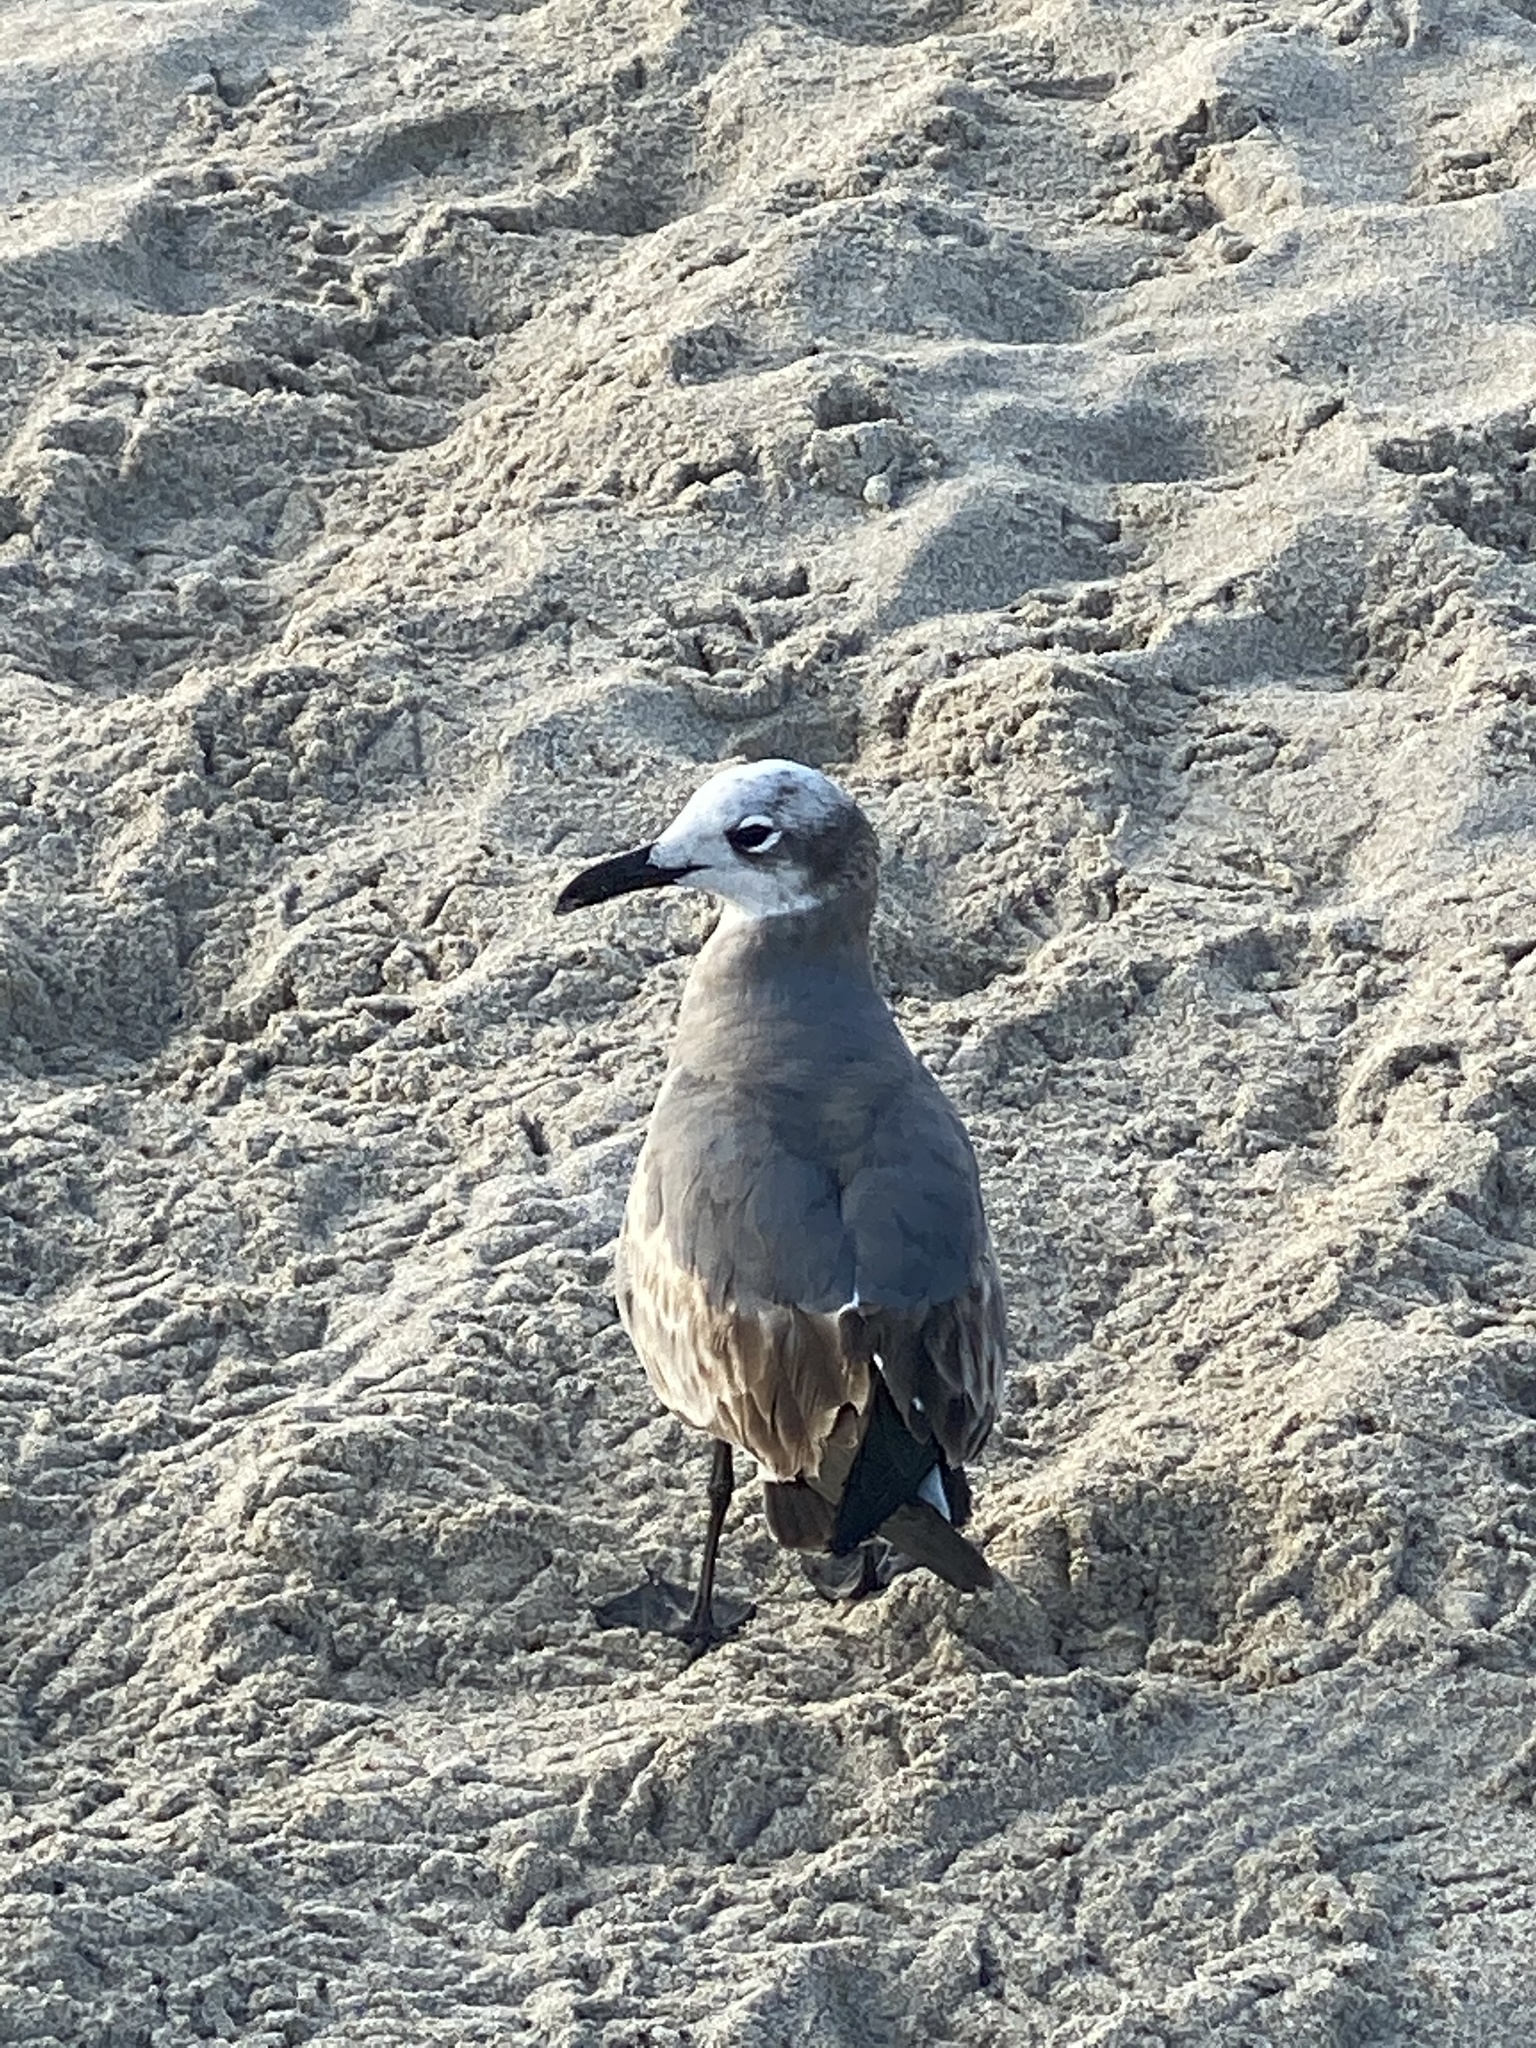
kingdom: Animalia
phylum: Chordata
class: Aves
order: Charadriiformes
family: Laridae
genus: Leucophaeus
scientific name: Leucophaeus atricilla
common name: Laughing gull
